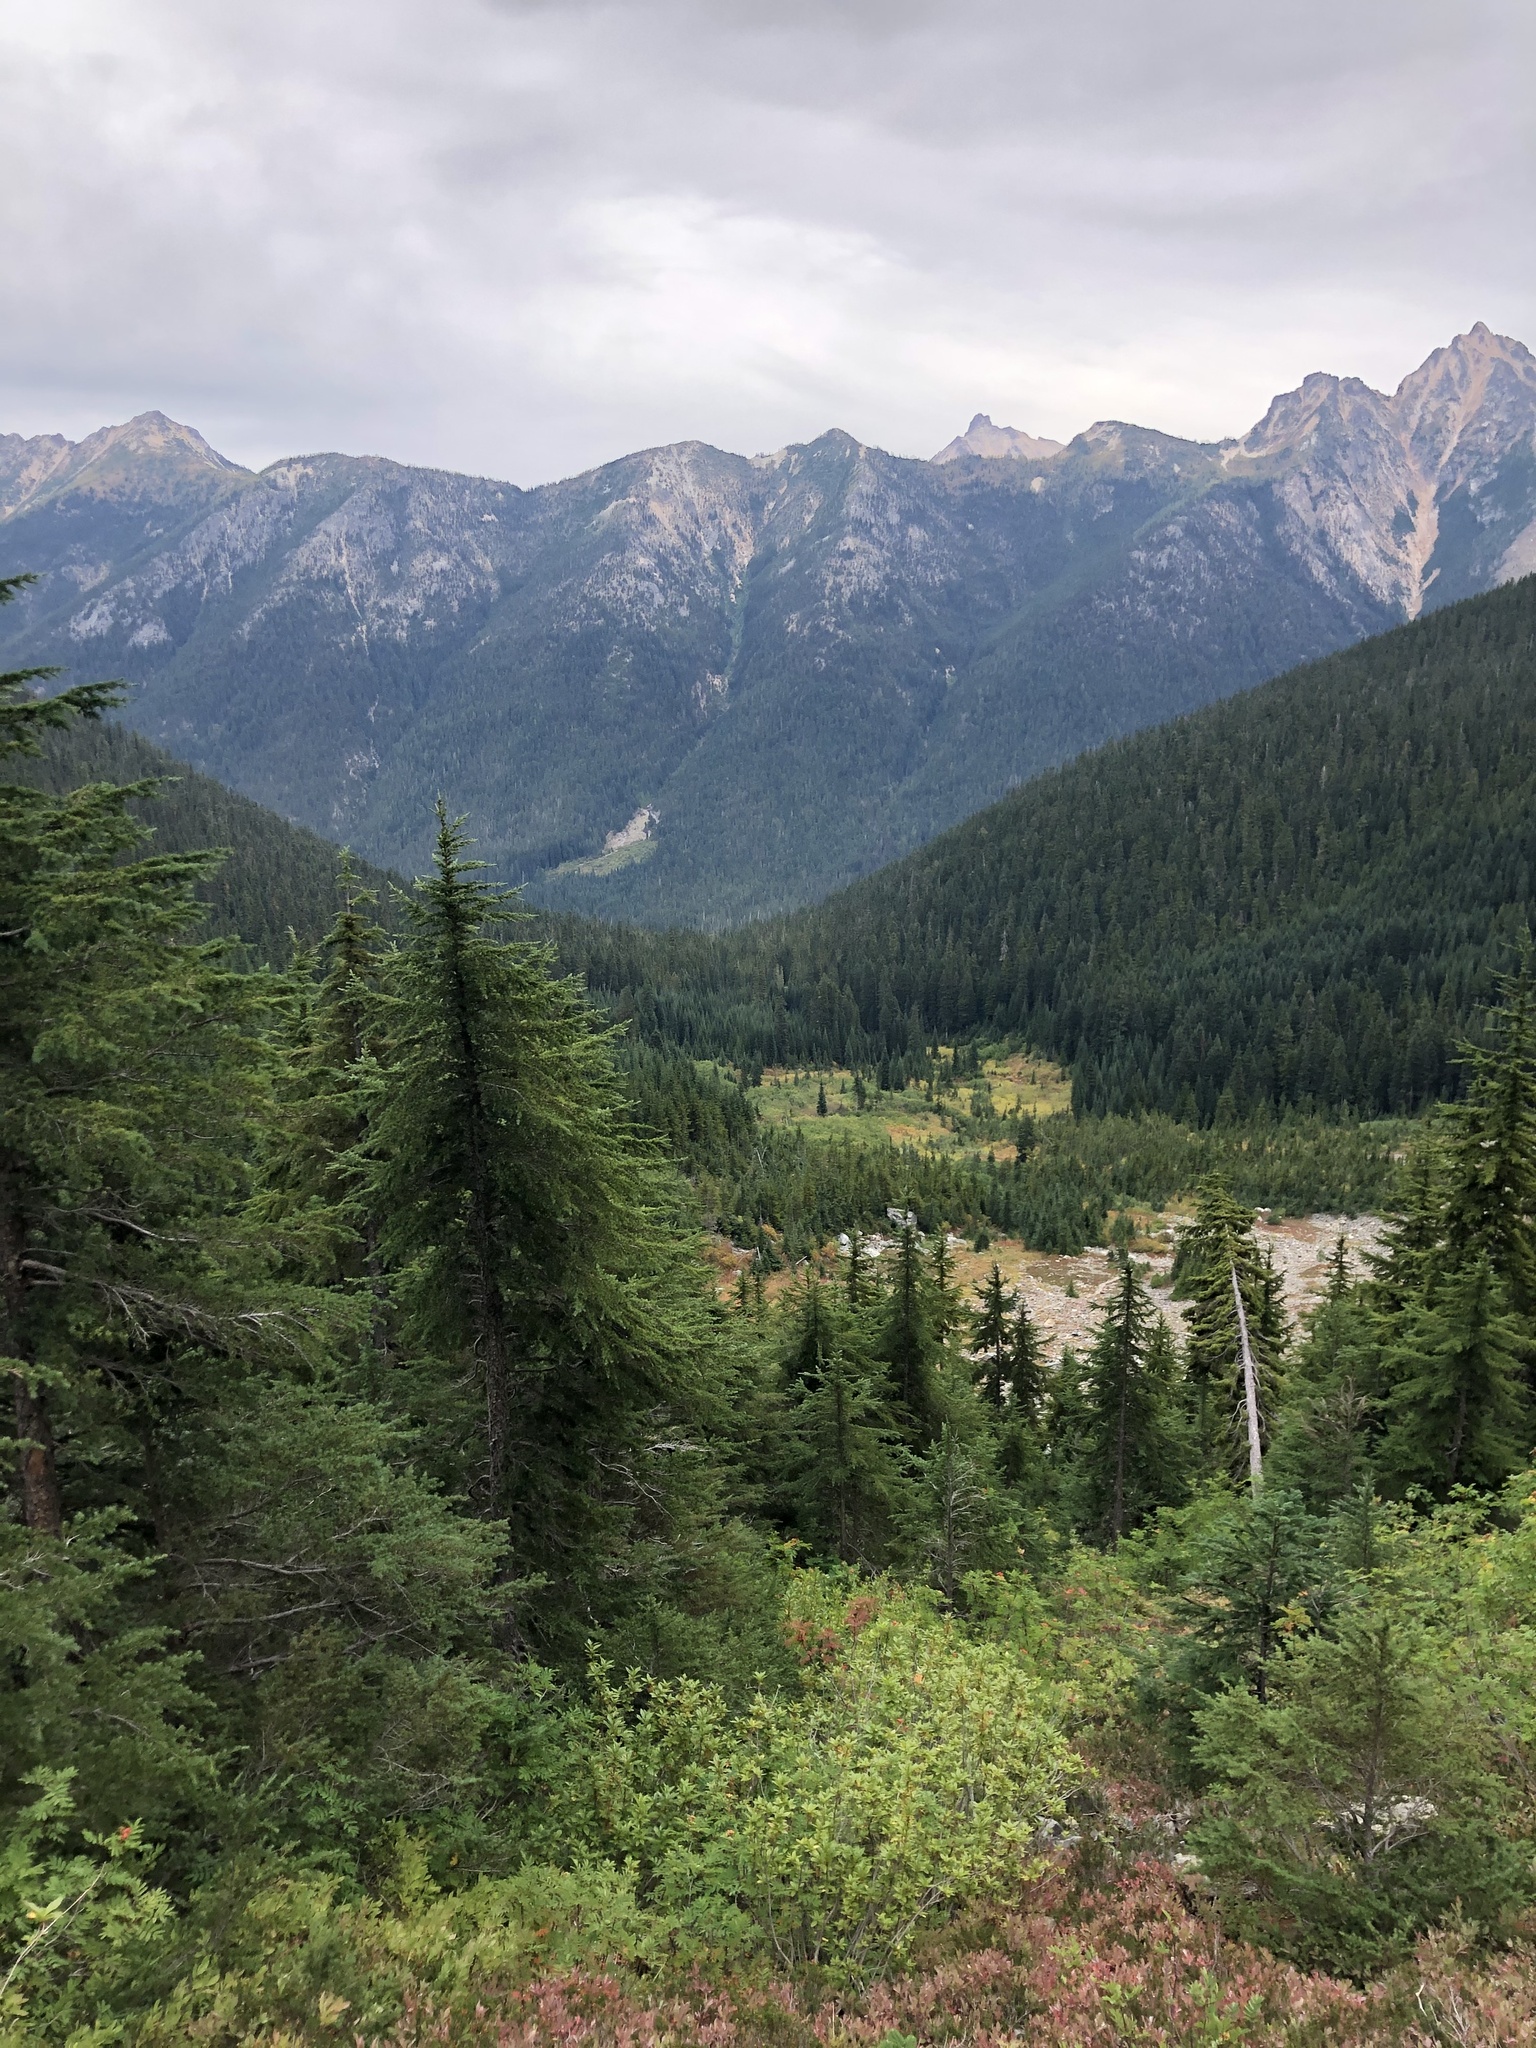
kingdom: Plantae
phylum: Tracheophyta
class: Pinopsida
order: Pinales
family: Pinaceae
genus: Tsuga
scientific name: Tsuga mertensiana
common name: Mountain hemlock
